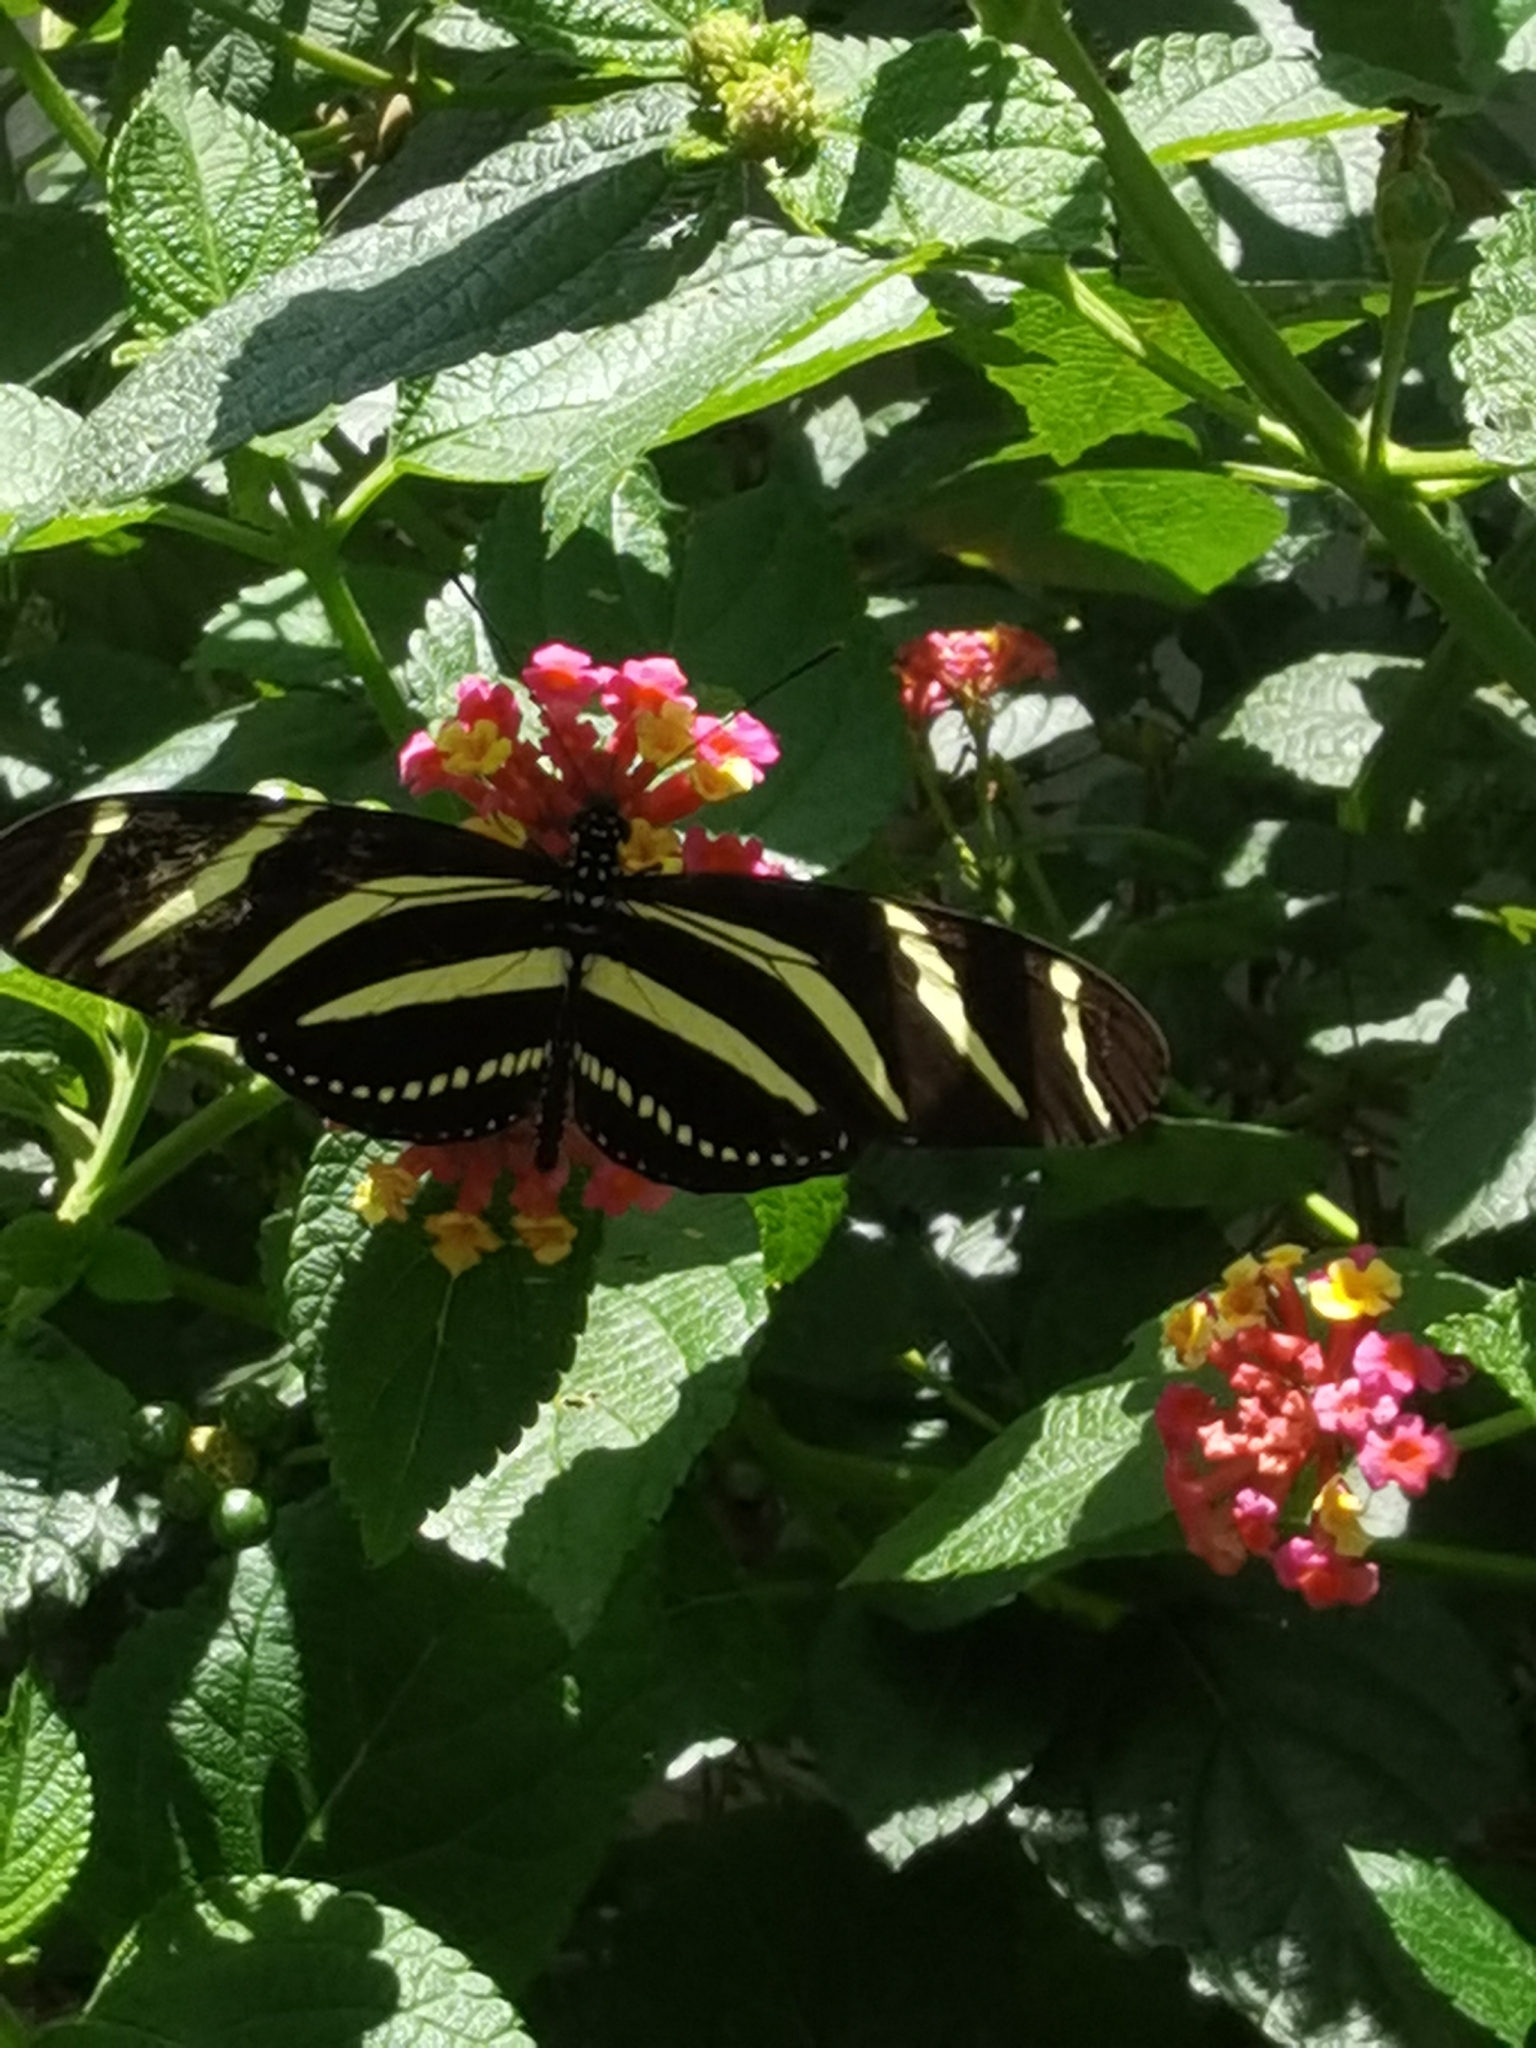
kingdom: Animalia
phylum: Arthropoda
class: Insecta
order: Lepidoptera
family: Nymphalidae
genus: Heliconius
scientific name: Heliconius charithonia
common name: Zebra long wing
